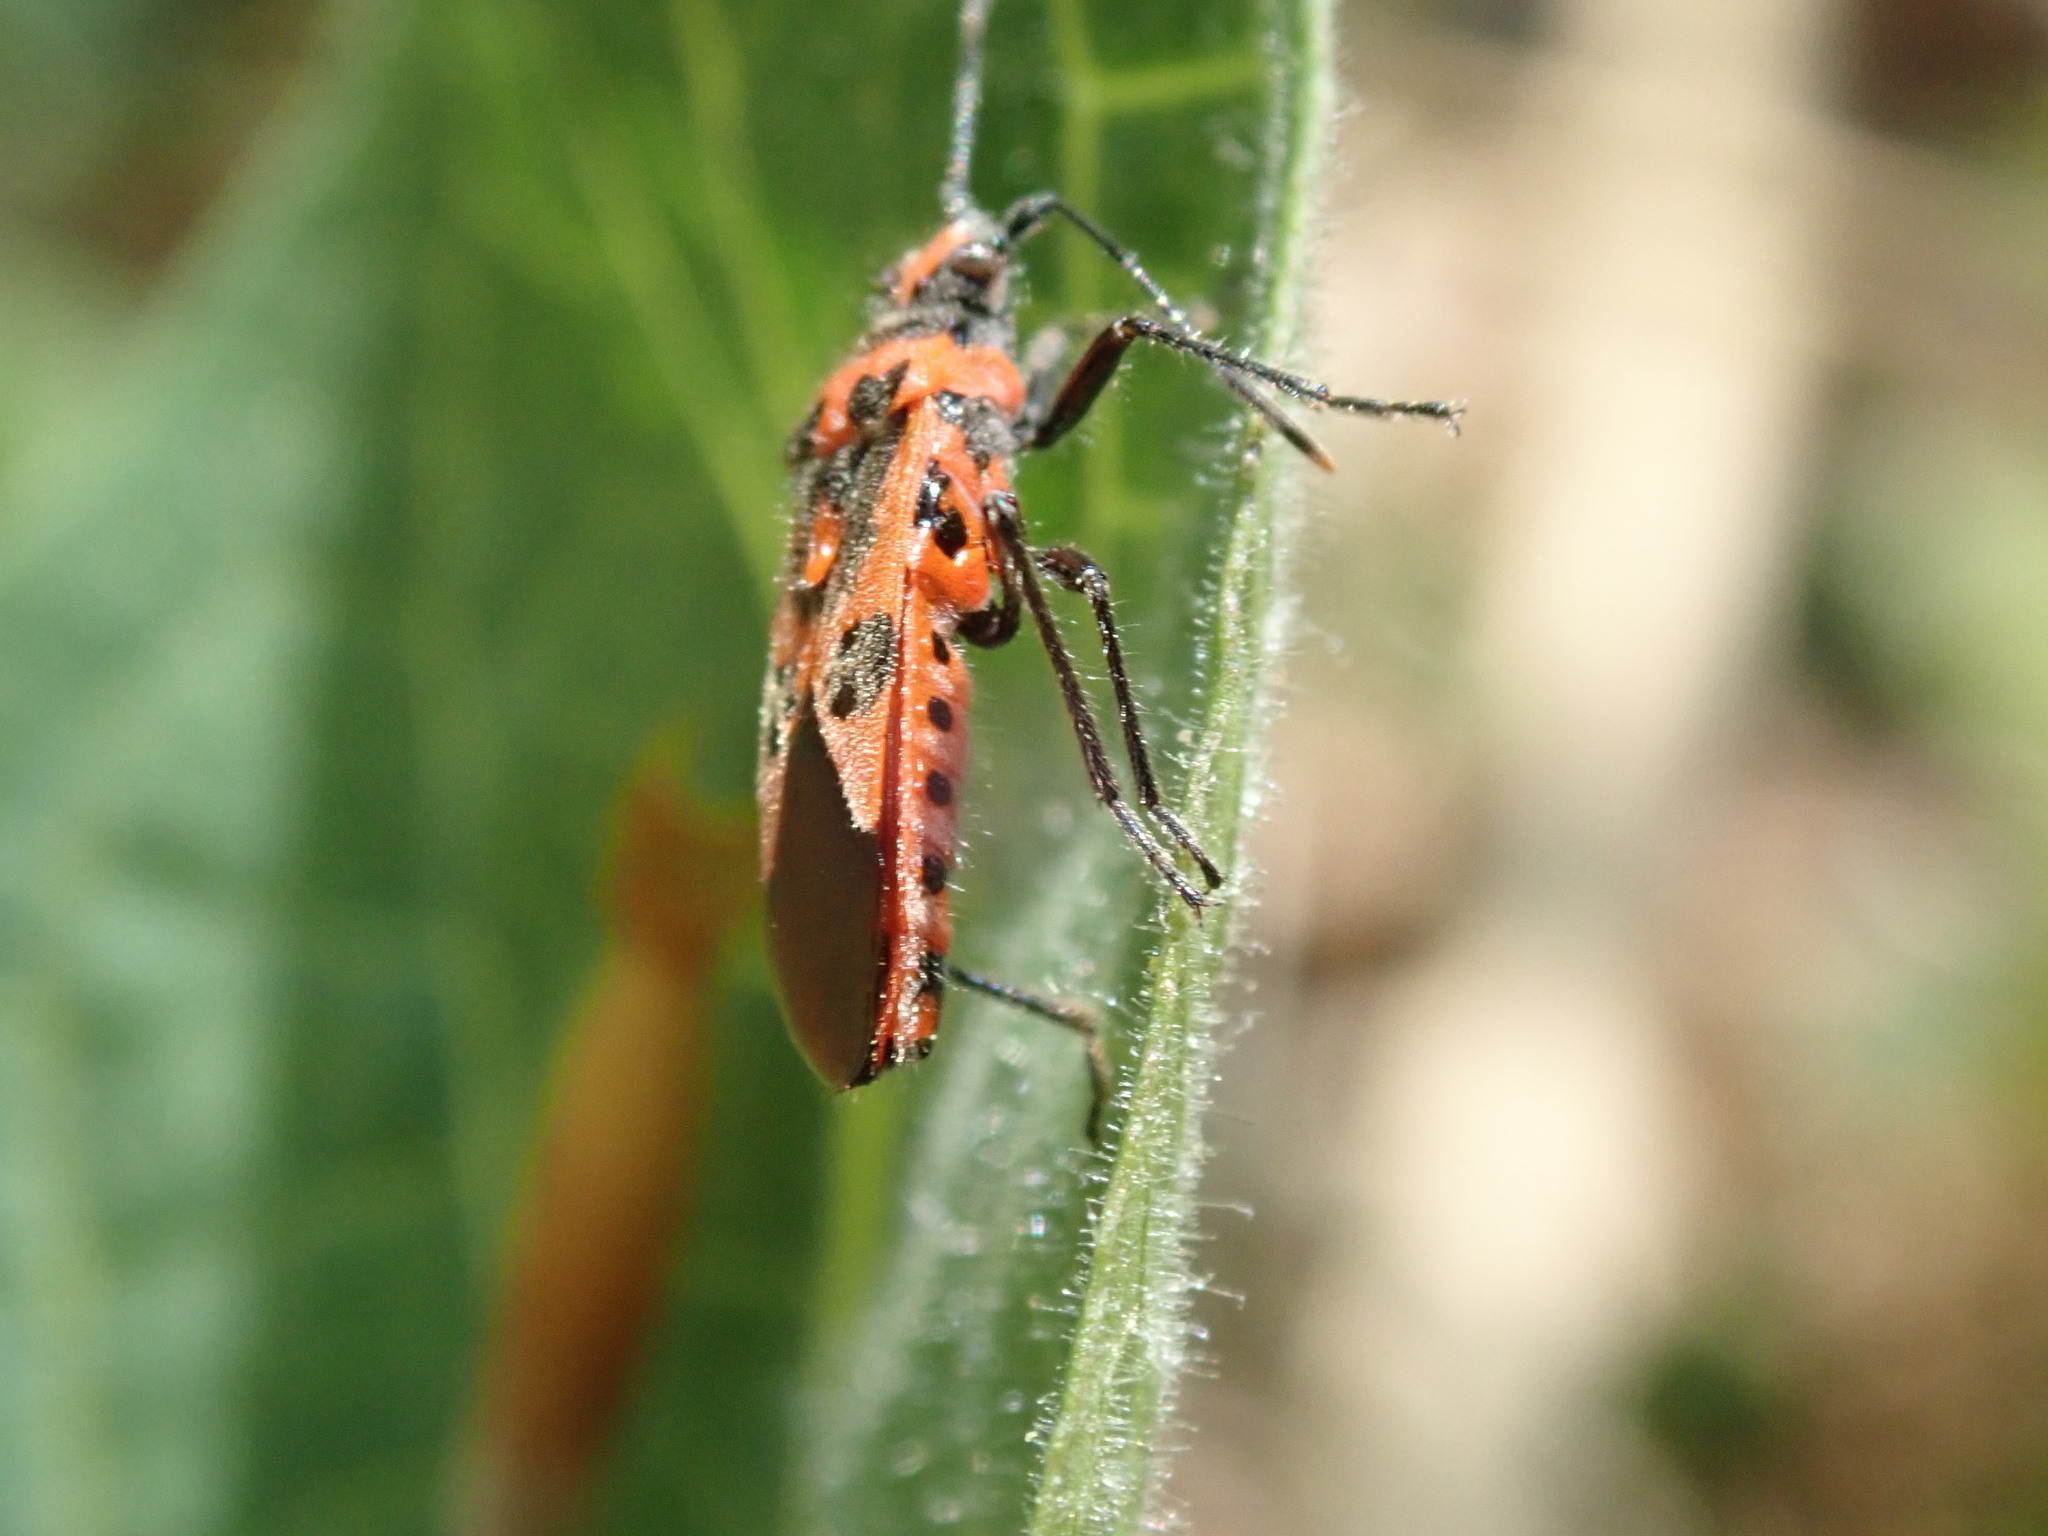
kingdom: Animalia
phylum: Arthropoda
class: Insecta
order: Hemiptera
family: Rhopalidae
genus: Corizus
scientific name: Corizus hyoscyami
